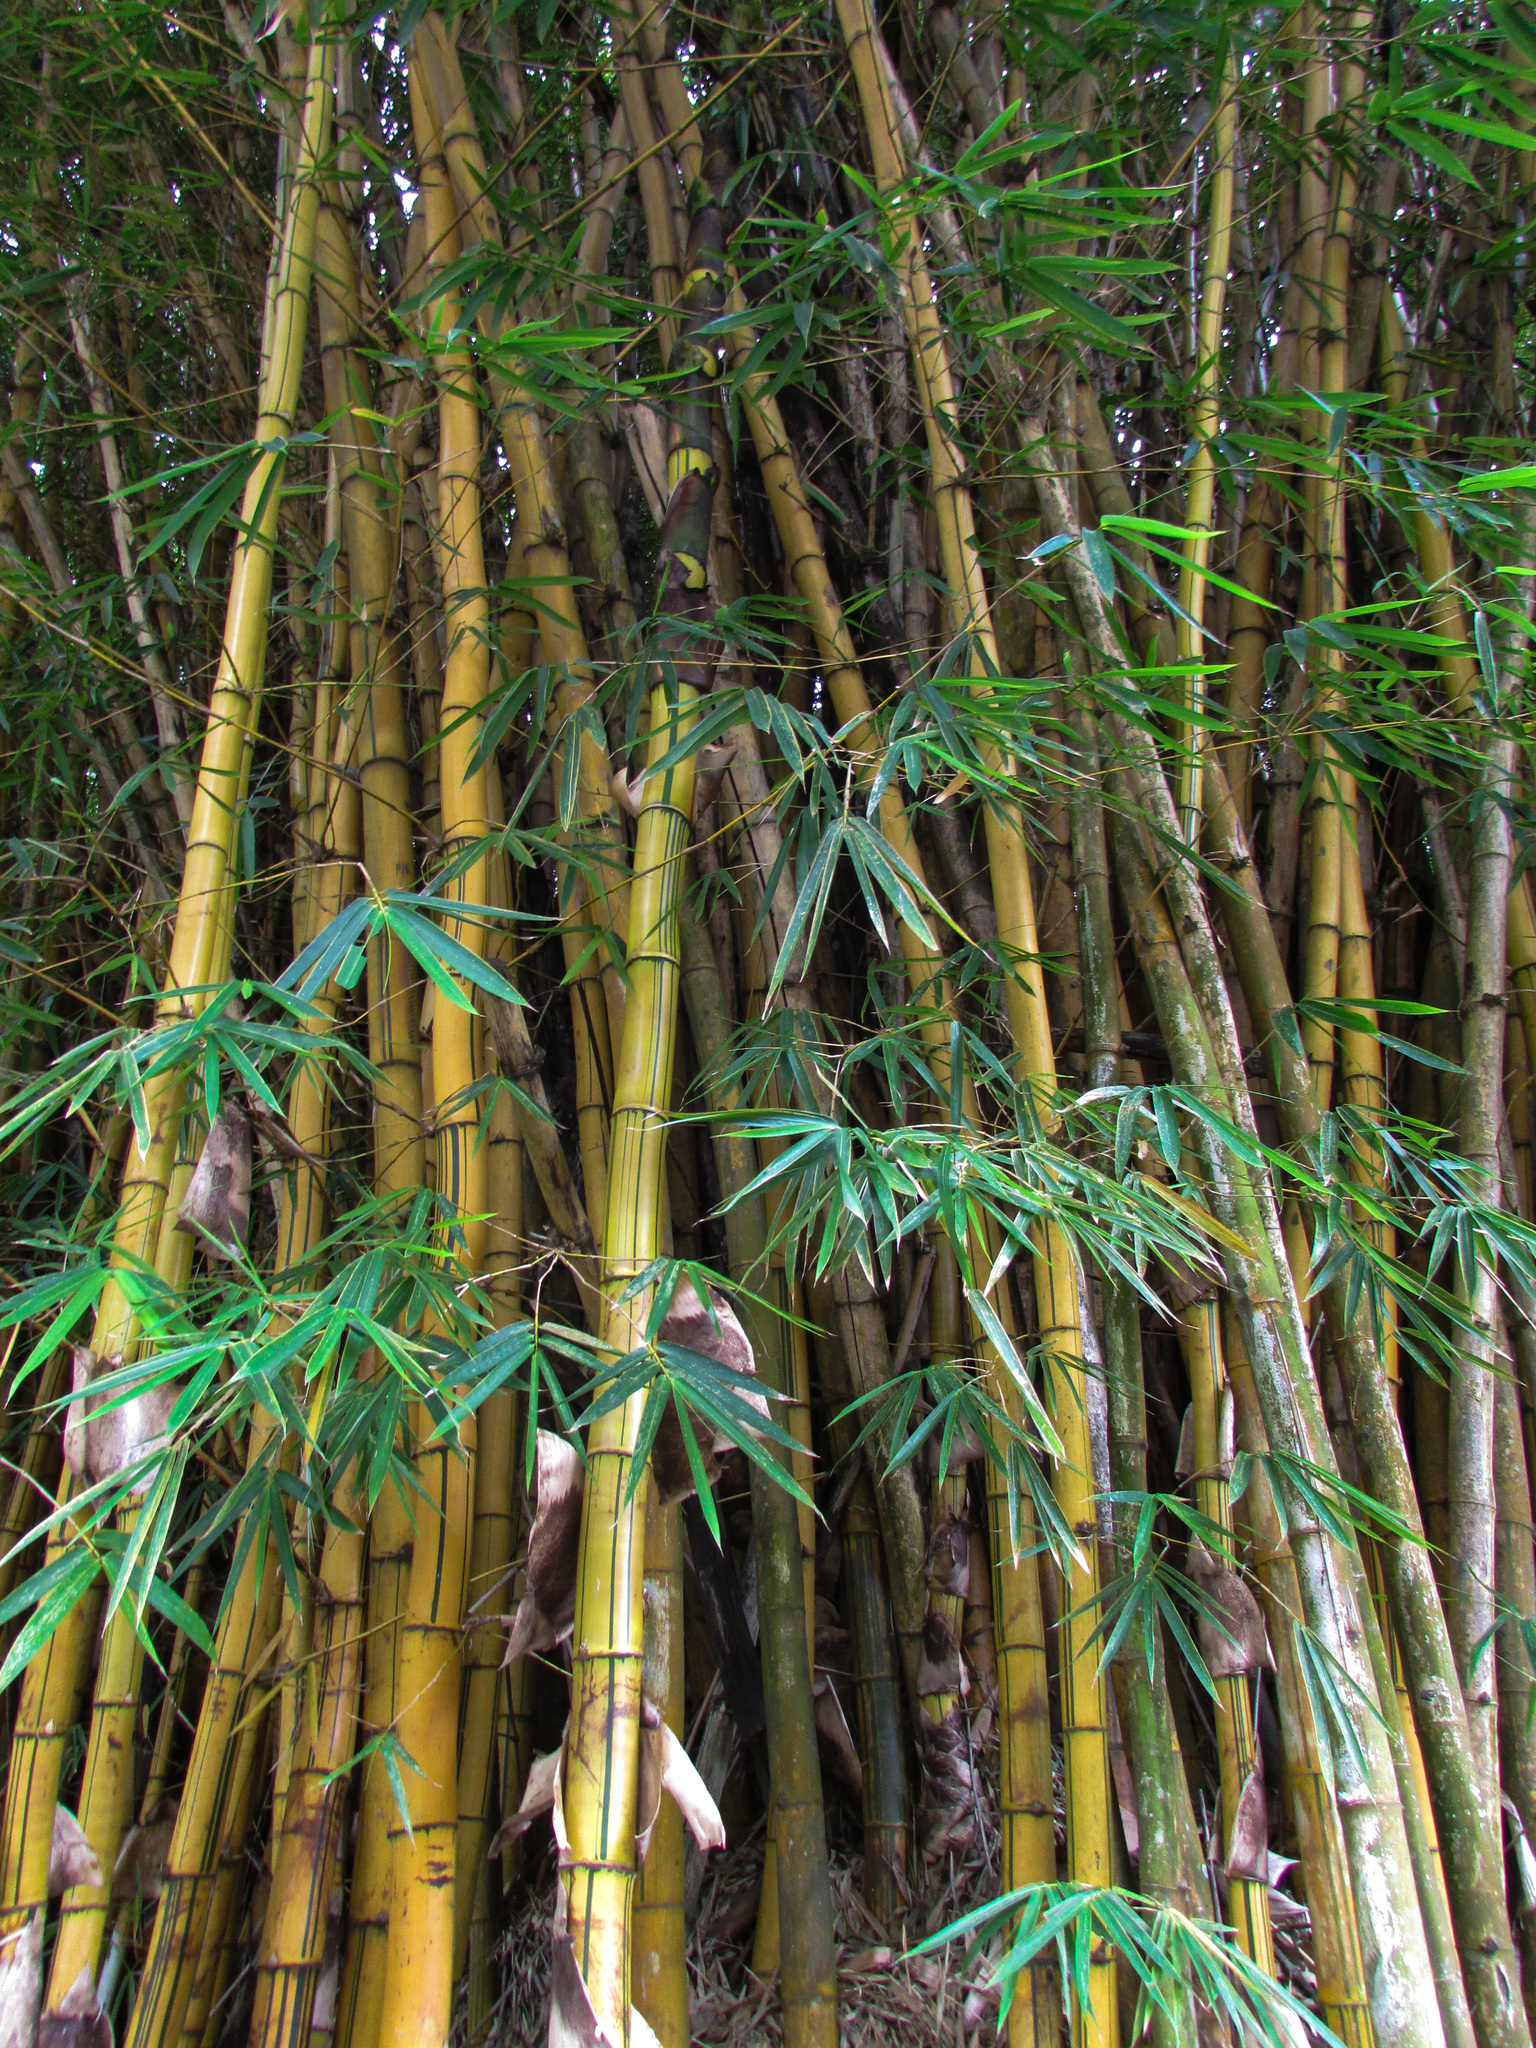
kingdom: Plantae
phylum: Tracheophyta
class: Liliopsida
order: Poales
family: Poaceae
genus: Bambusa
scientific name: Bambusa vulgaris
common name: Common bamboo
